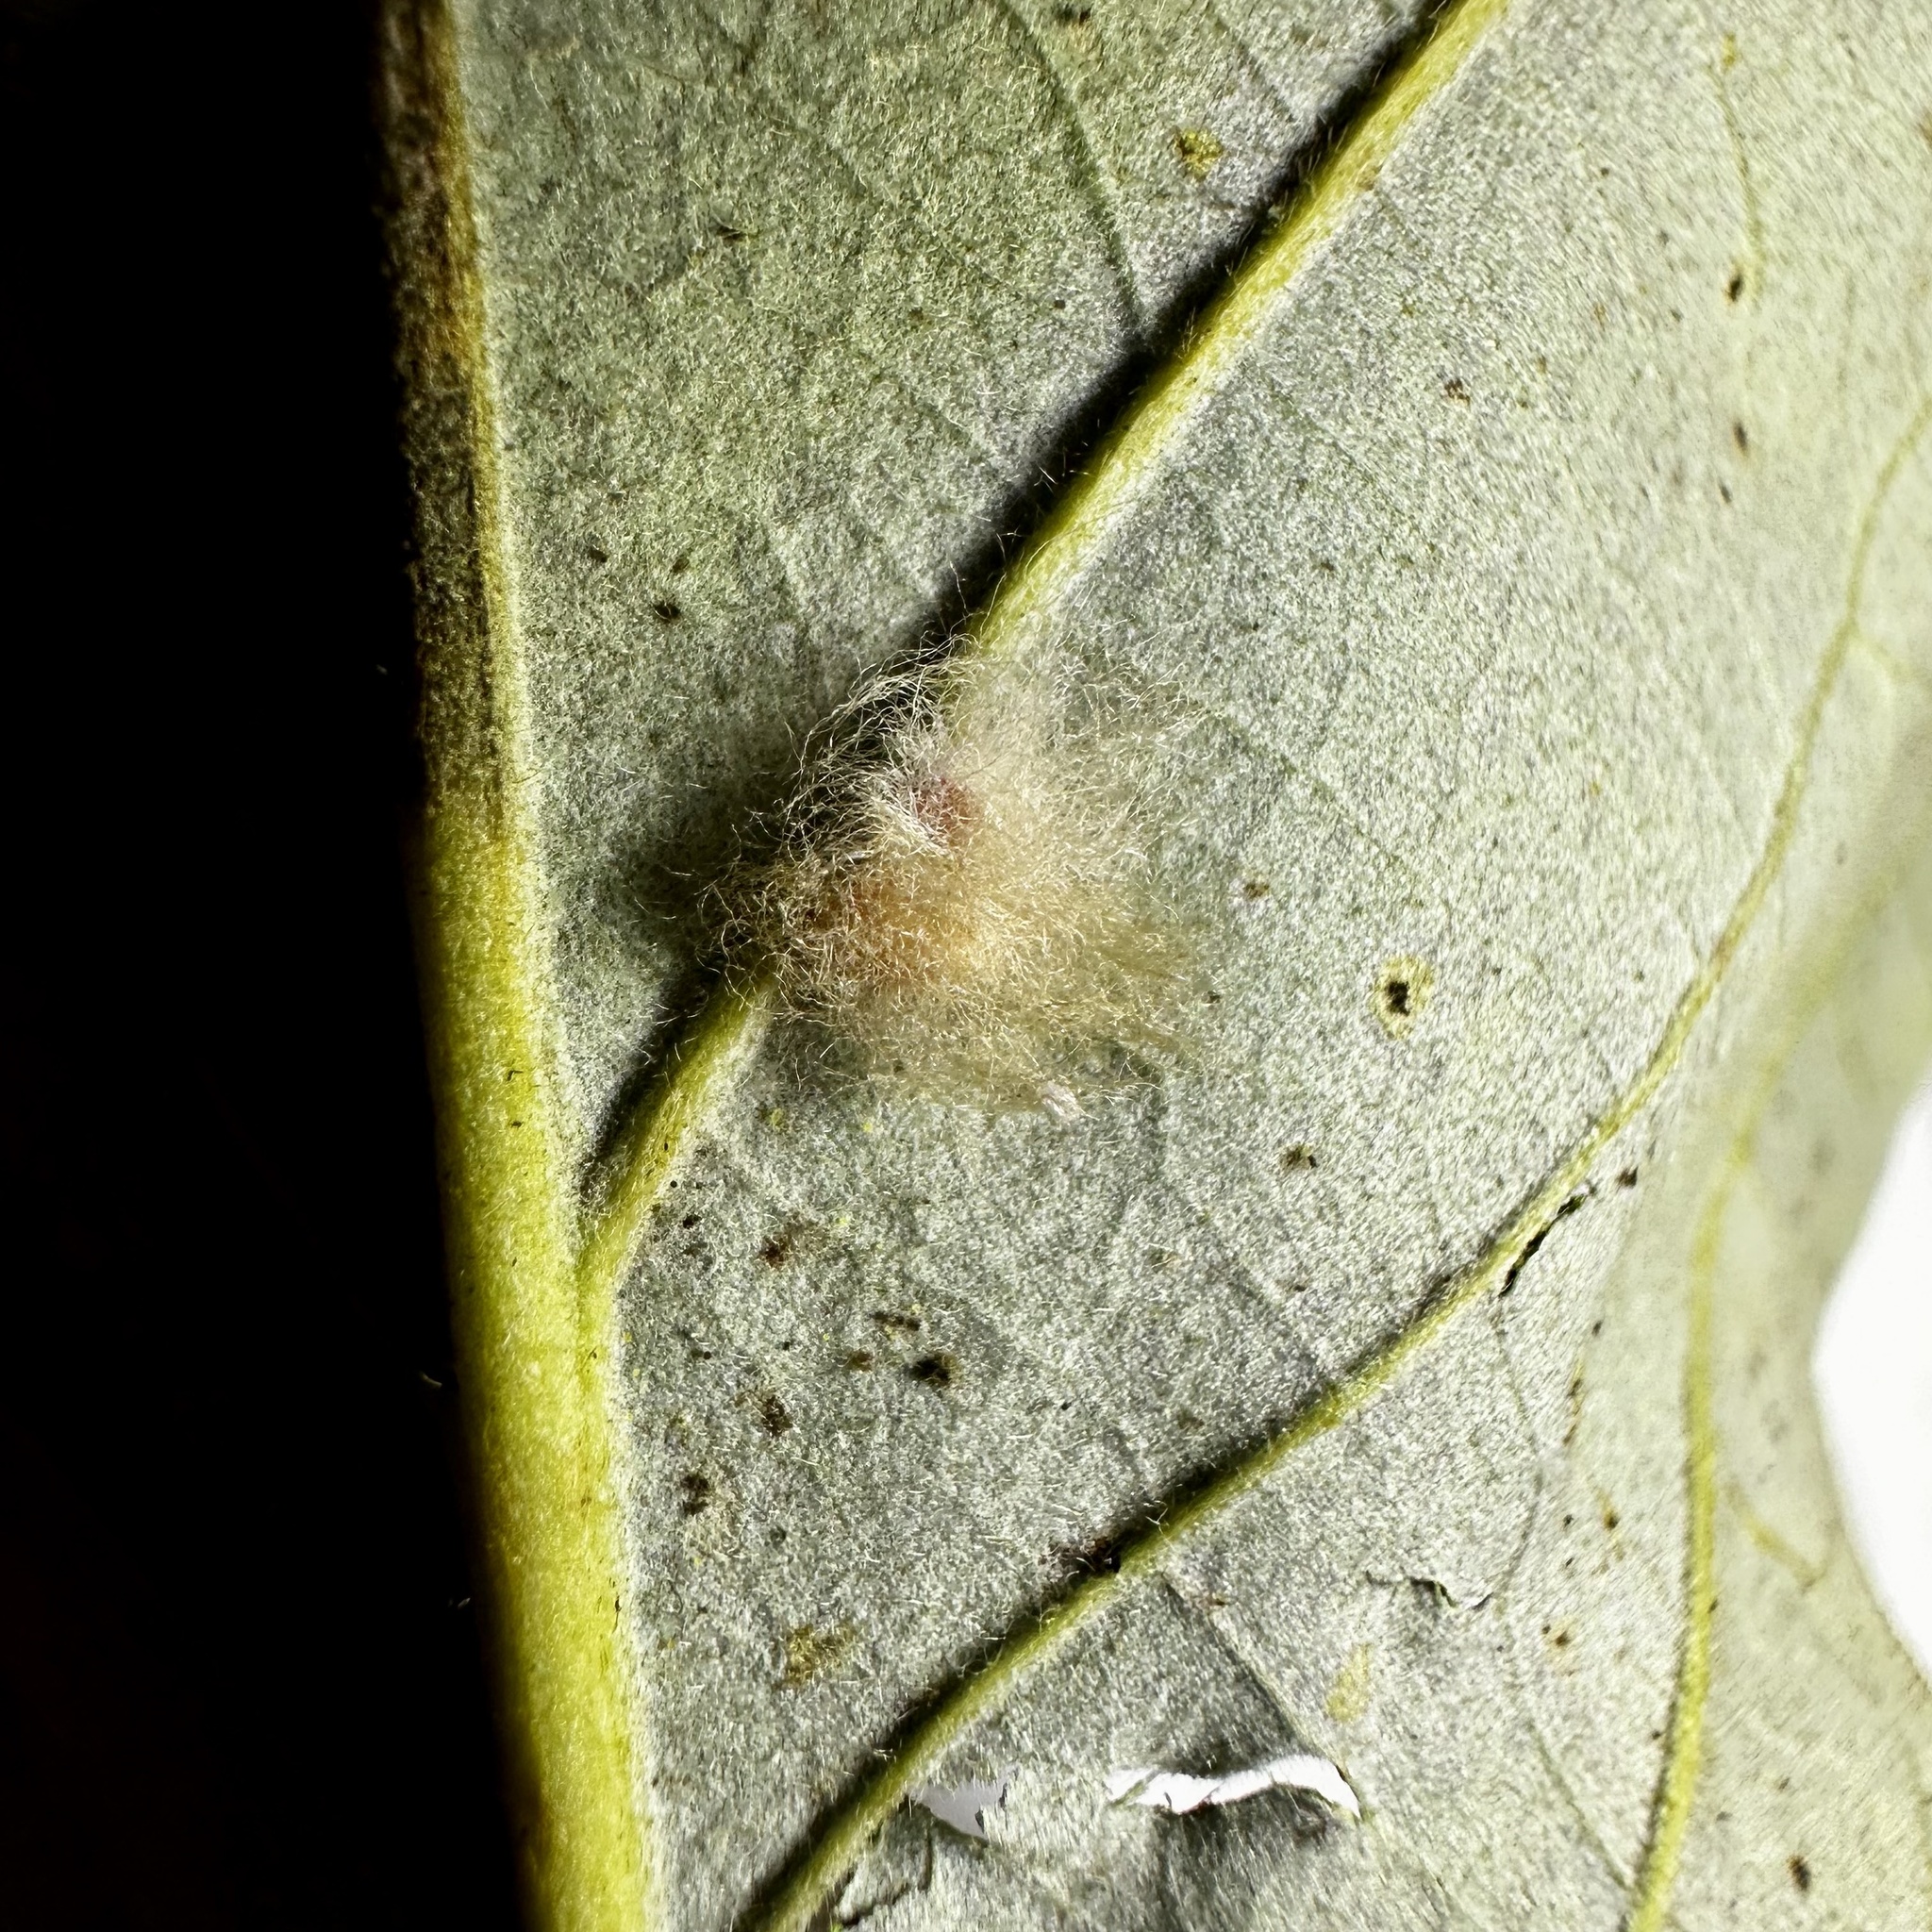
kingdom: Animalia
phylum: Arthropoda
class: Insecta
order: Hymenoptera
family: Cynipidae
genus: Andricus
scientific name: Andricus Druon ignotum
